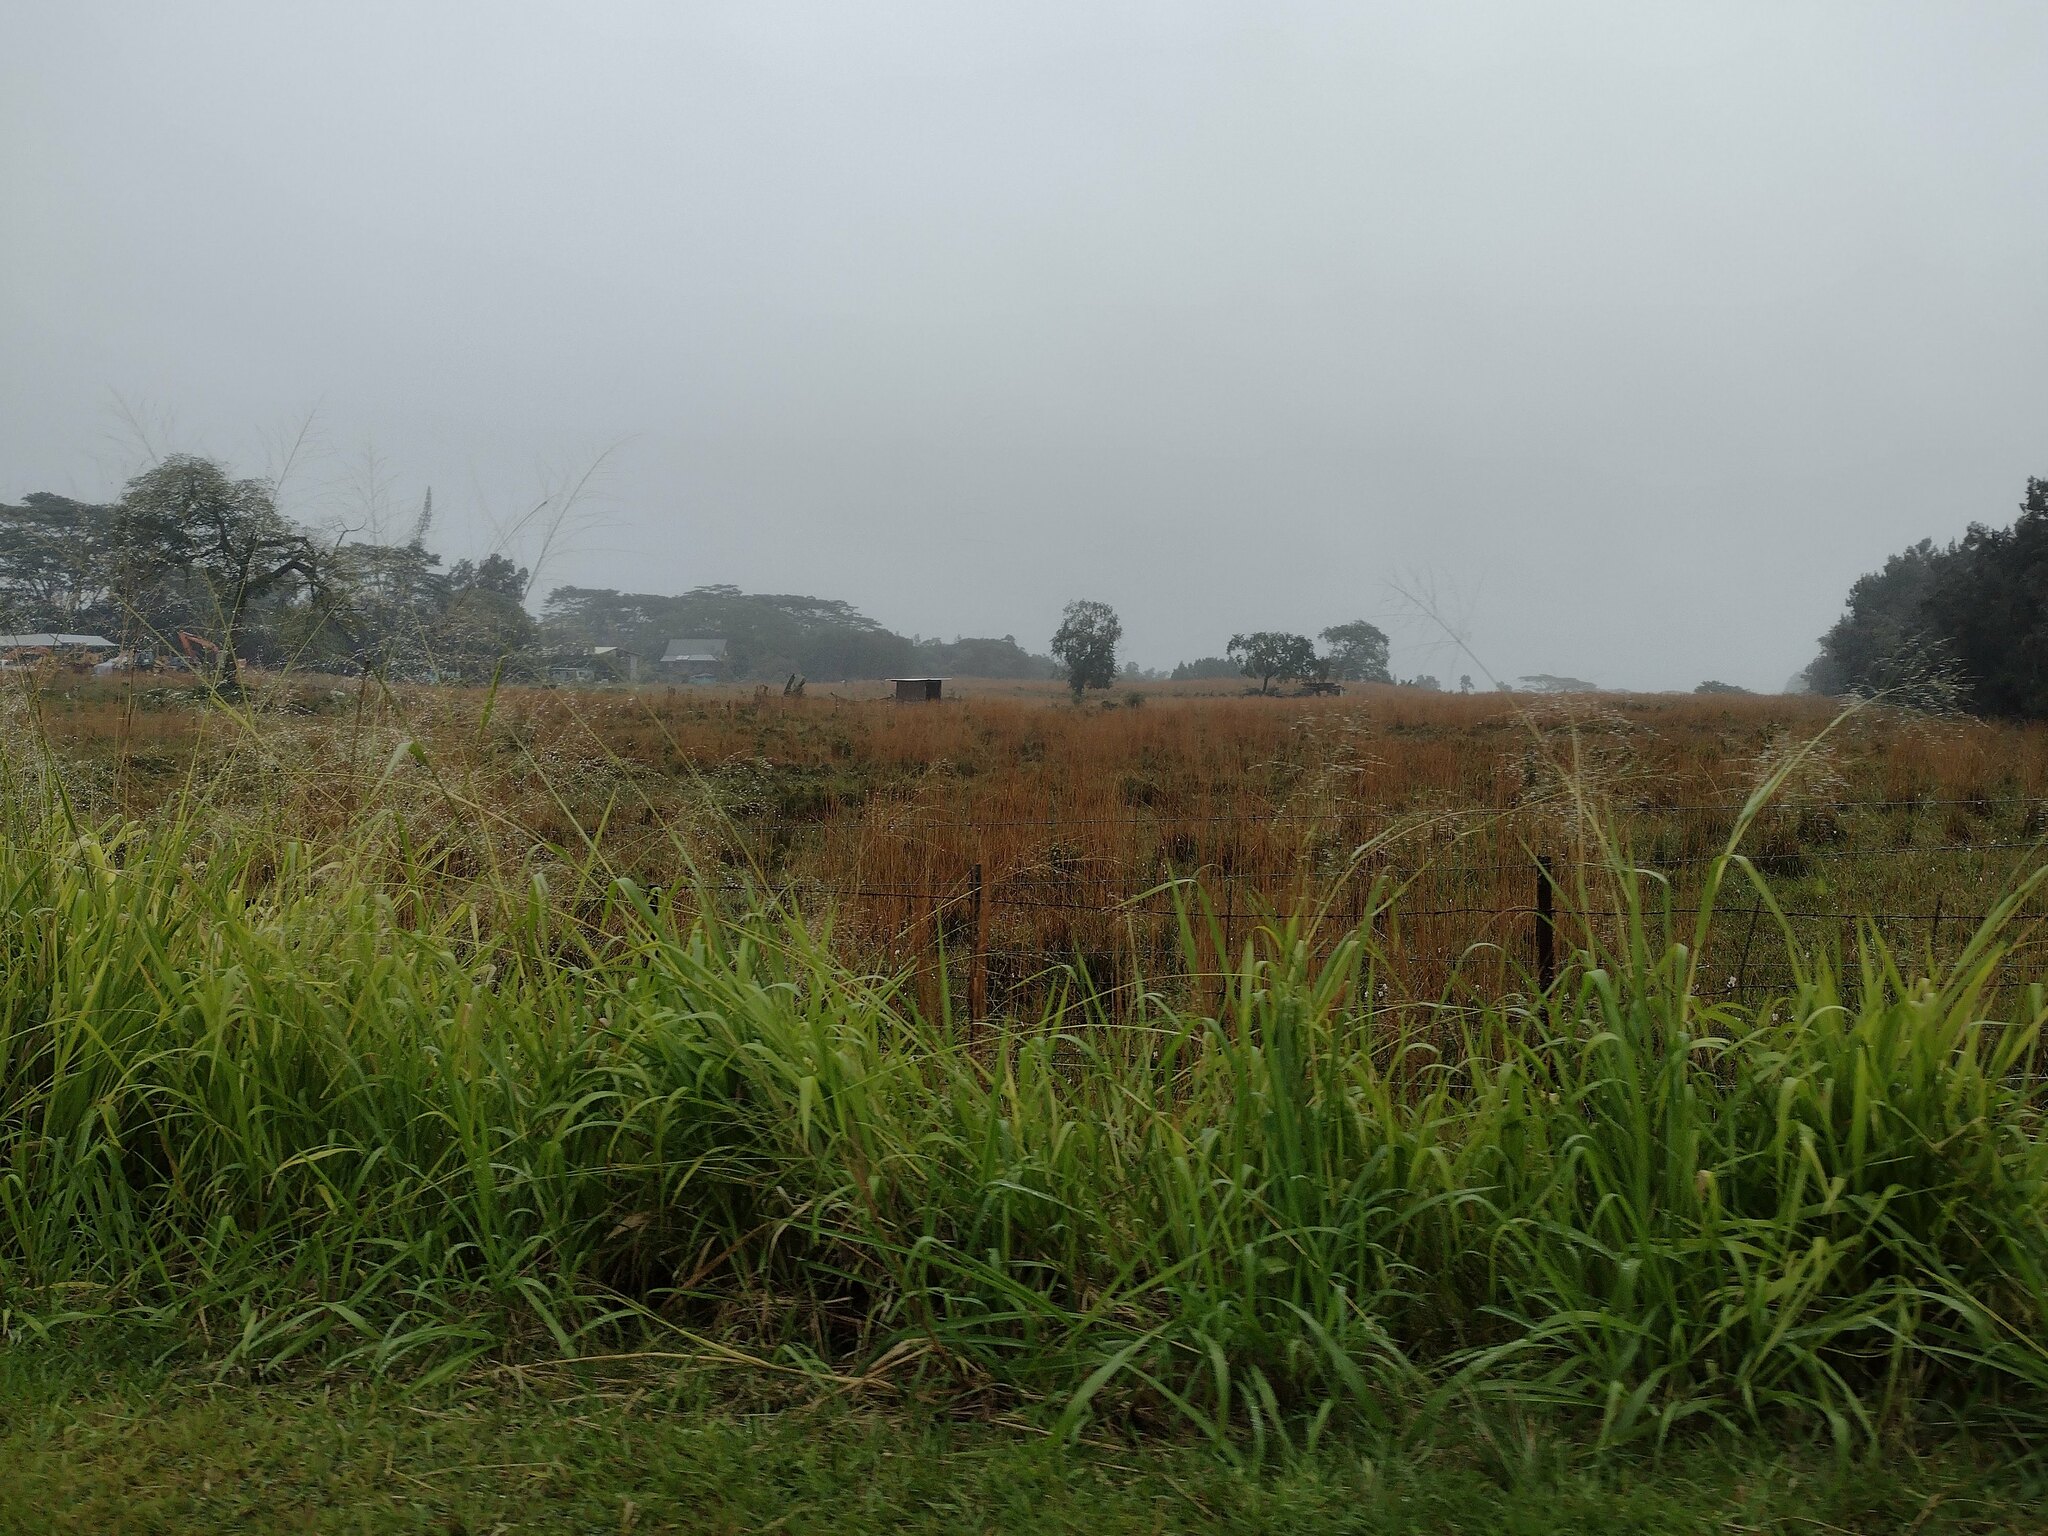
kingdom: Plantae
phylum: Tracheophyta
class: Liliopsida
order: Poales
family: Poaceae
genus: Megathyrsus
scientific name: Megathyrsus maximus
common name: Guineagrass
